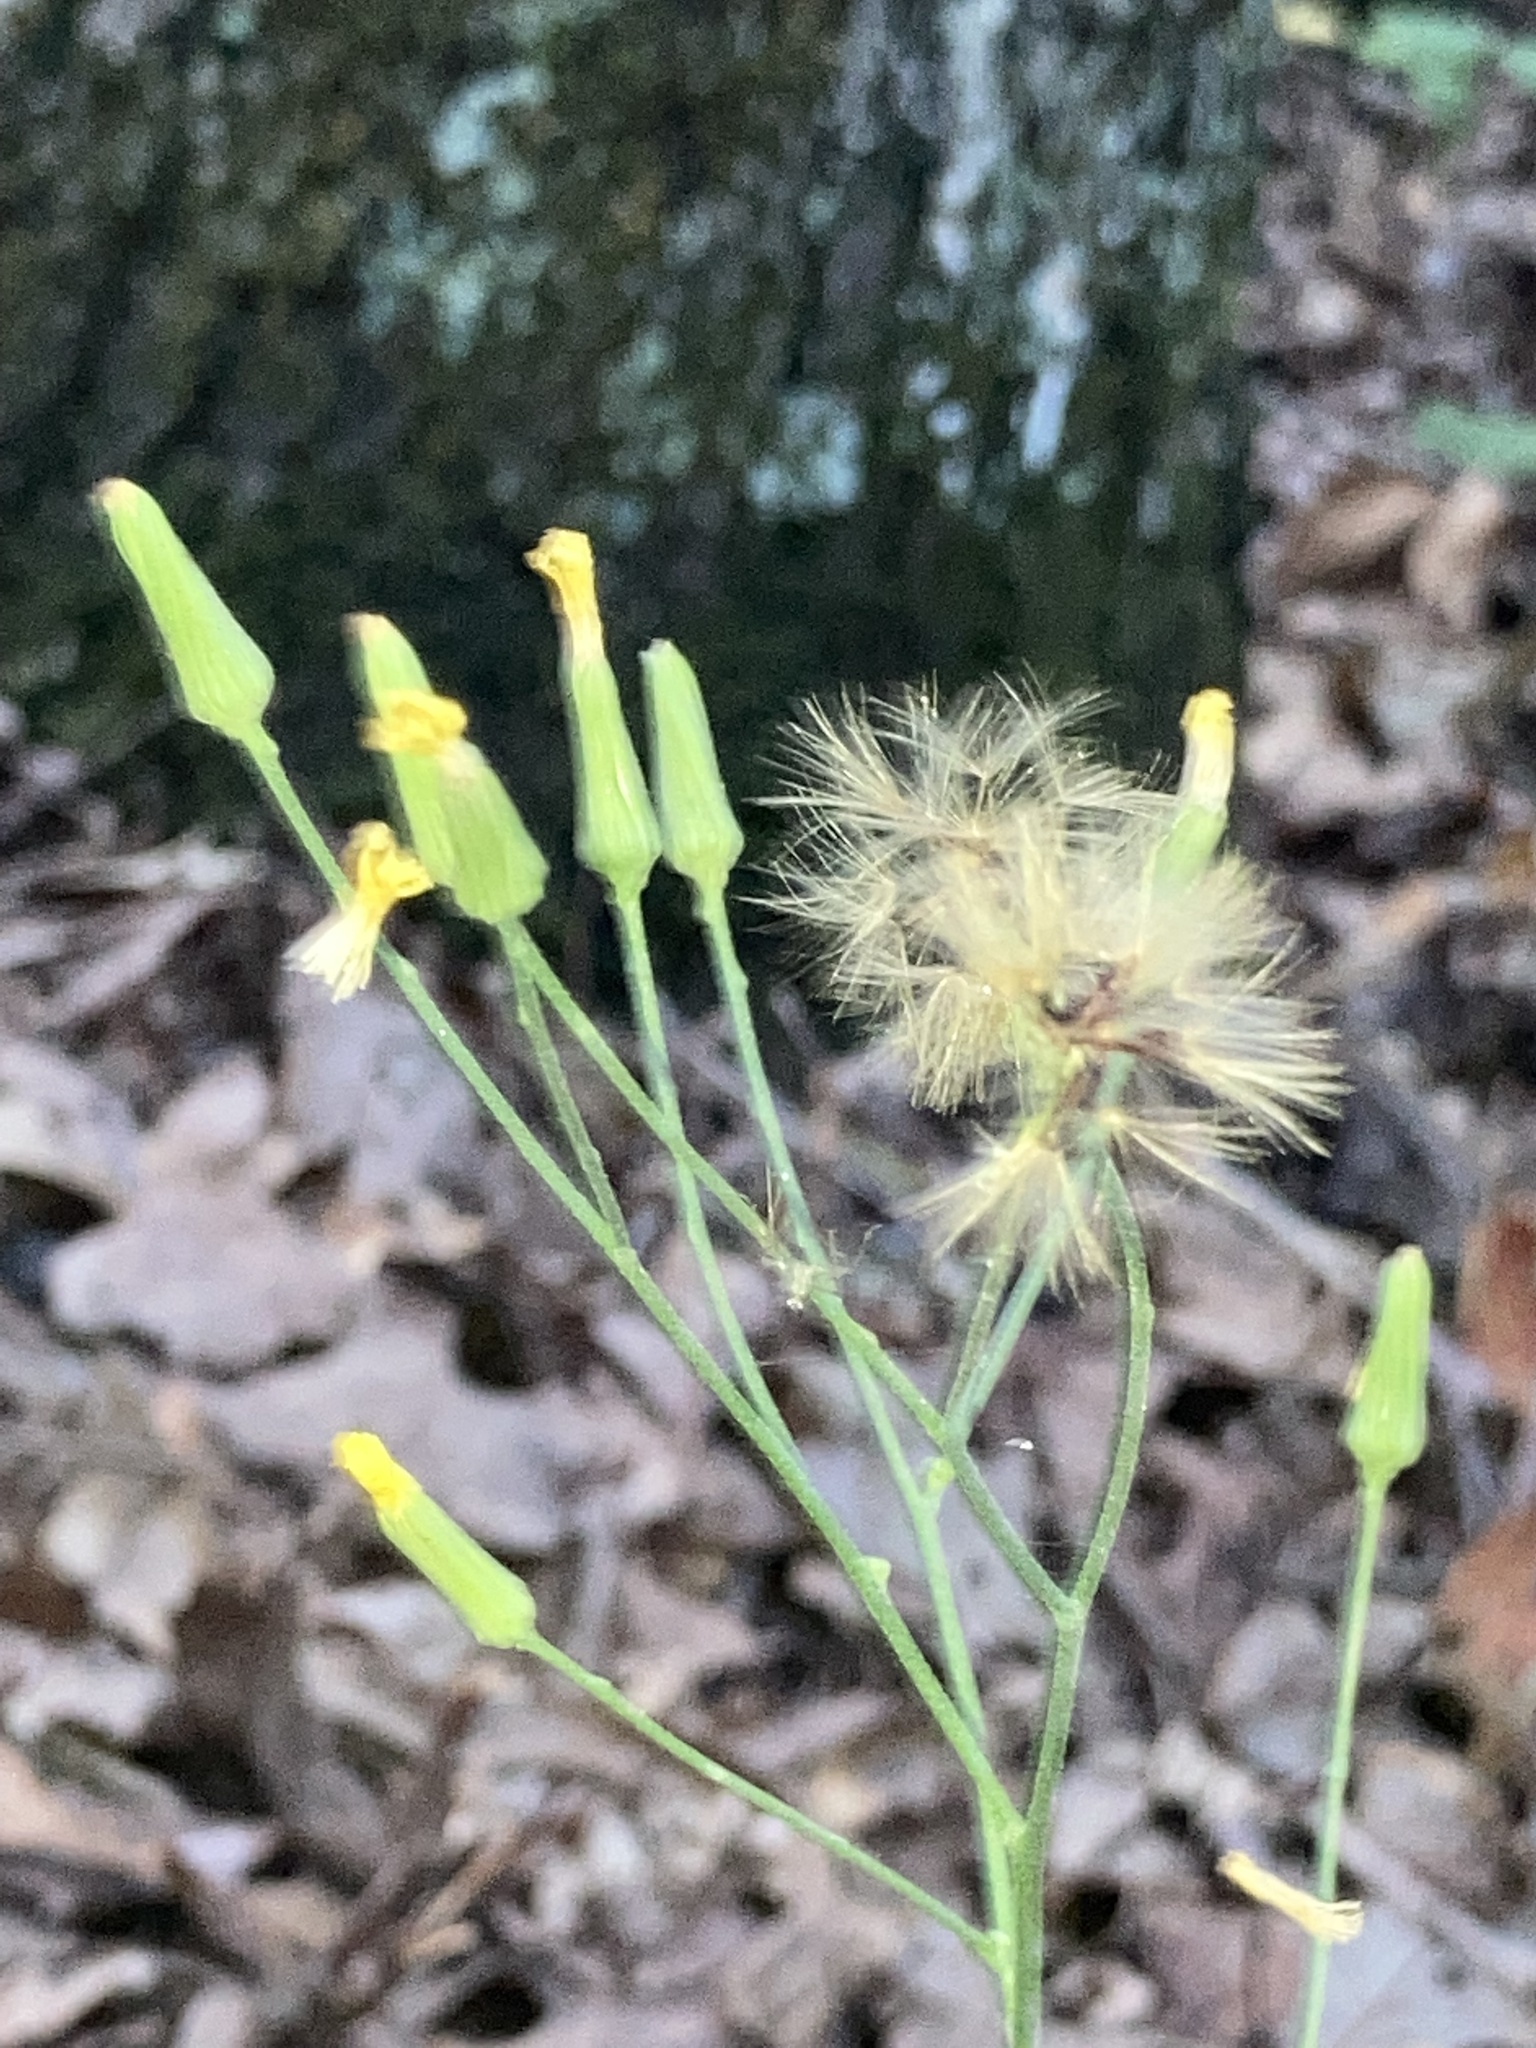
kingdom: Plantae
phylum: Tracheophyta
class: Magnoliopsida
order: Asterales
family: Asteraceae
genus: Hieracium
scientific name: Hieracium gronovii
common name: Beaked hawkweed
